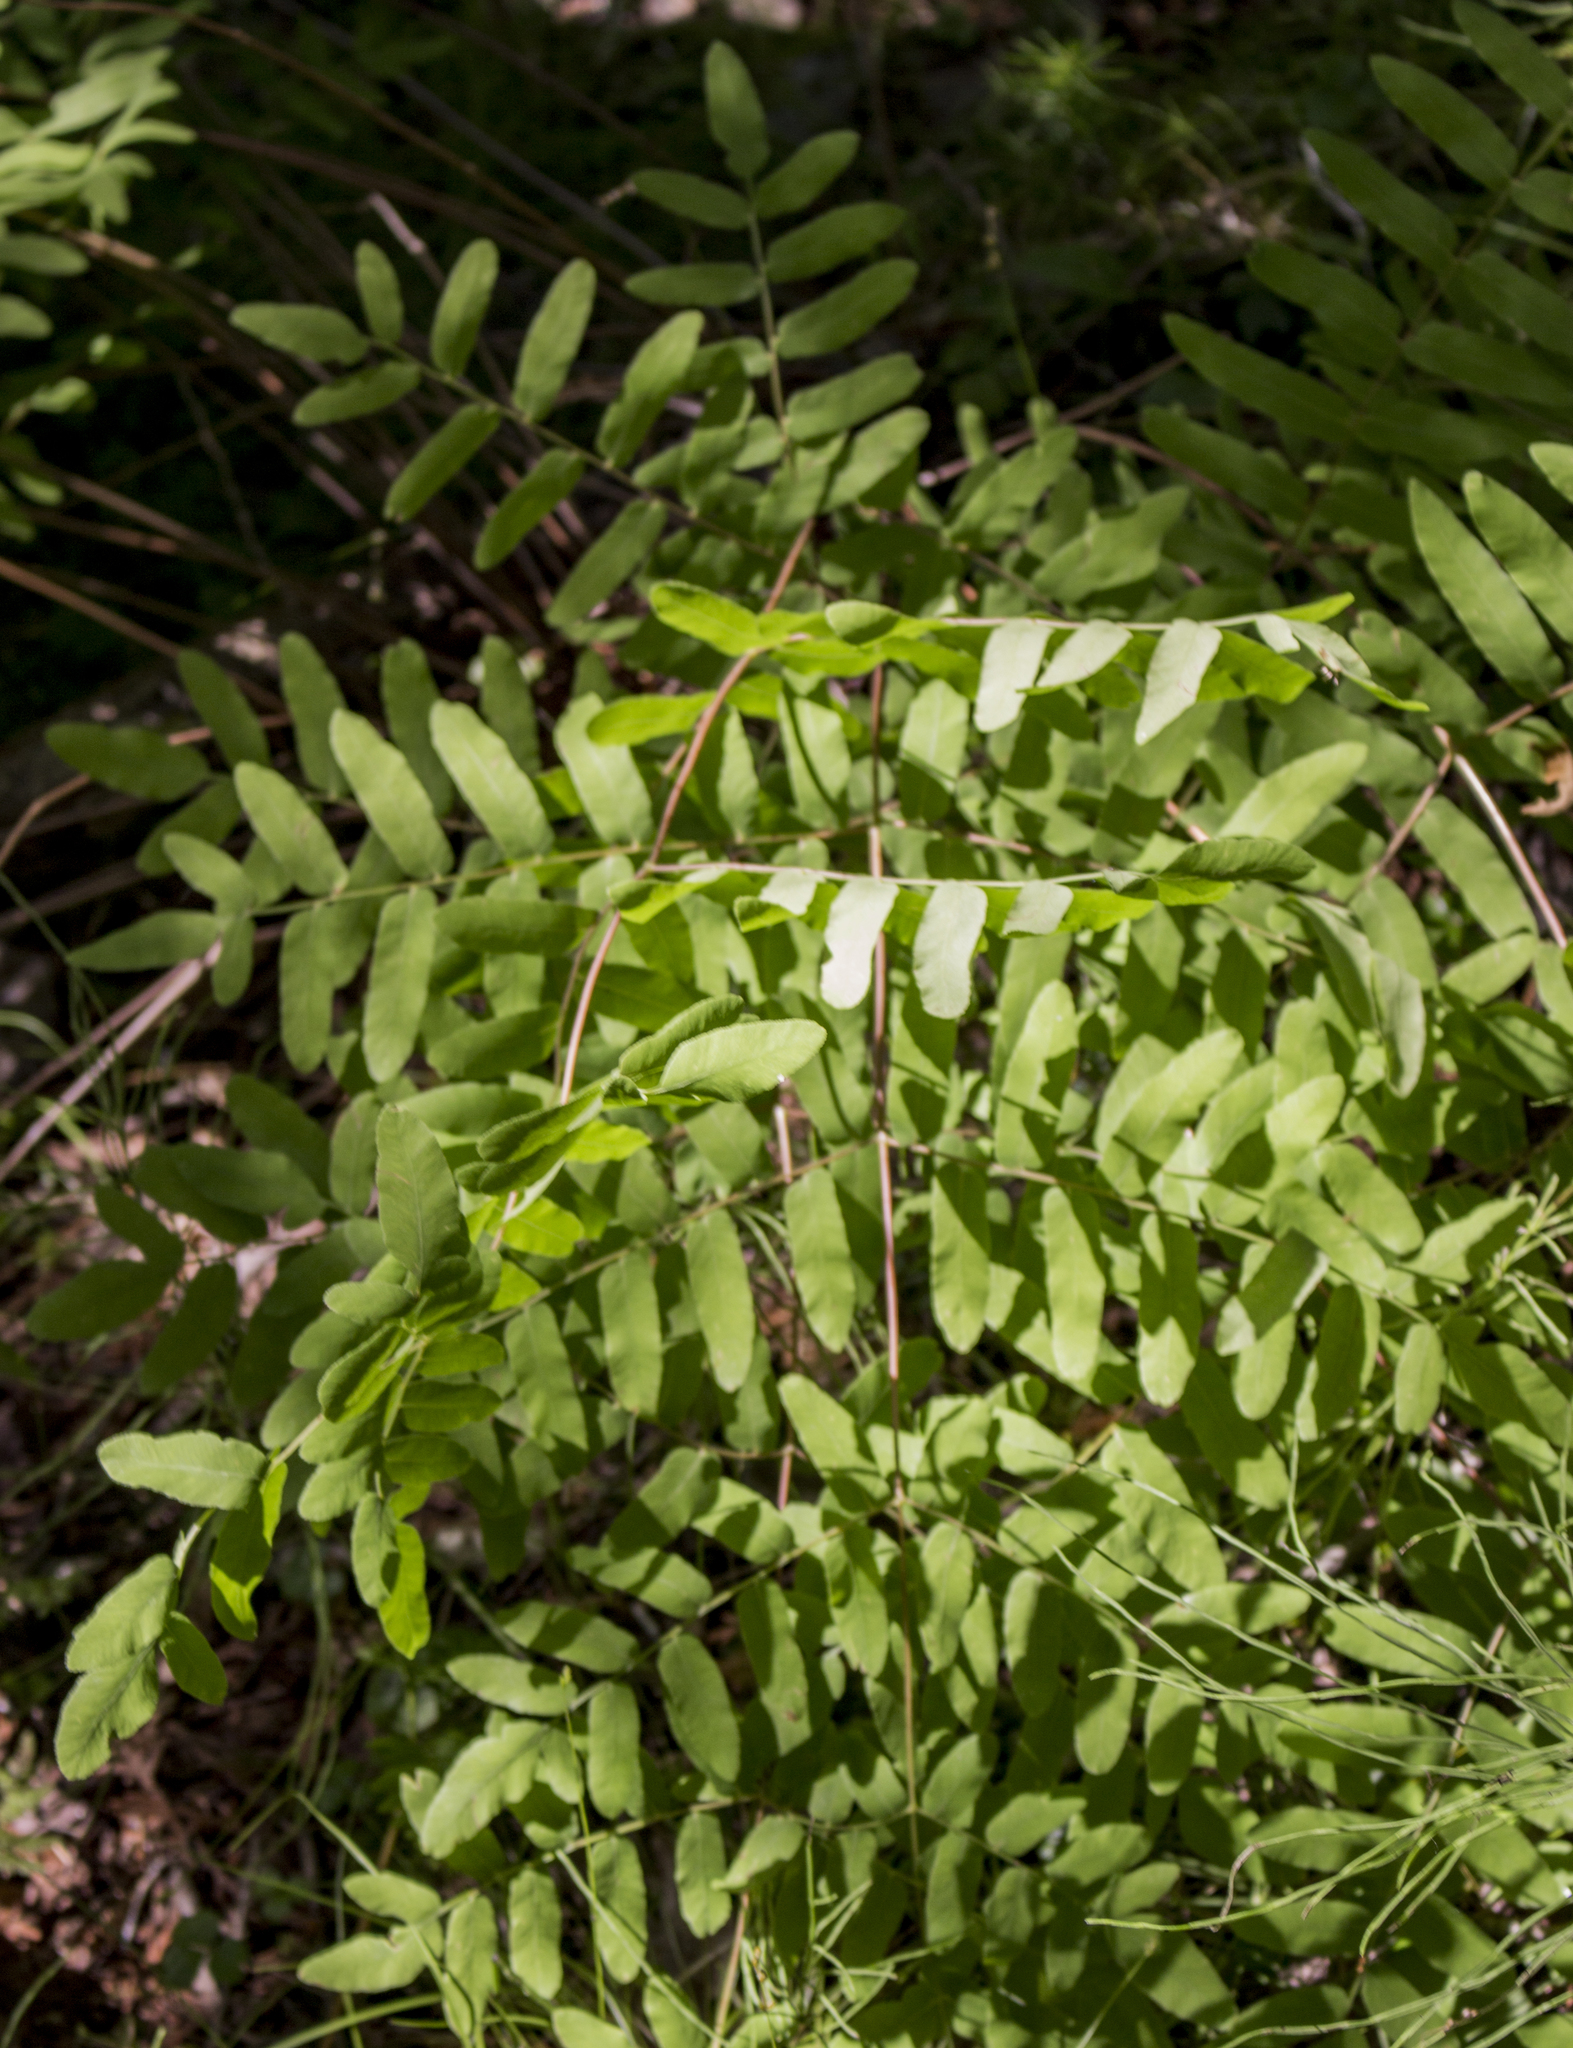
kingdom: Plantae
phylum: Tracheophyta
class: Polypodiopsida
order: Osmundales
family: Osmundaceae
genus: Osmunda
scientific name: Osmunda spectabilis
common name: American royal fern
